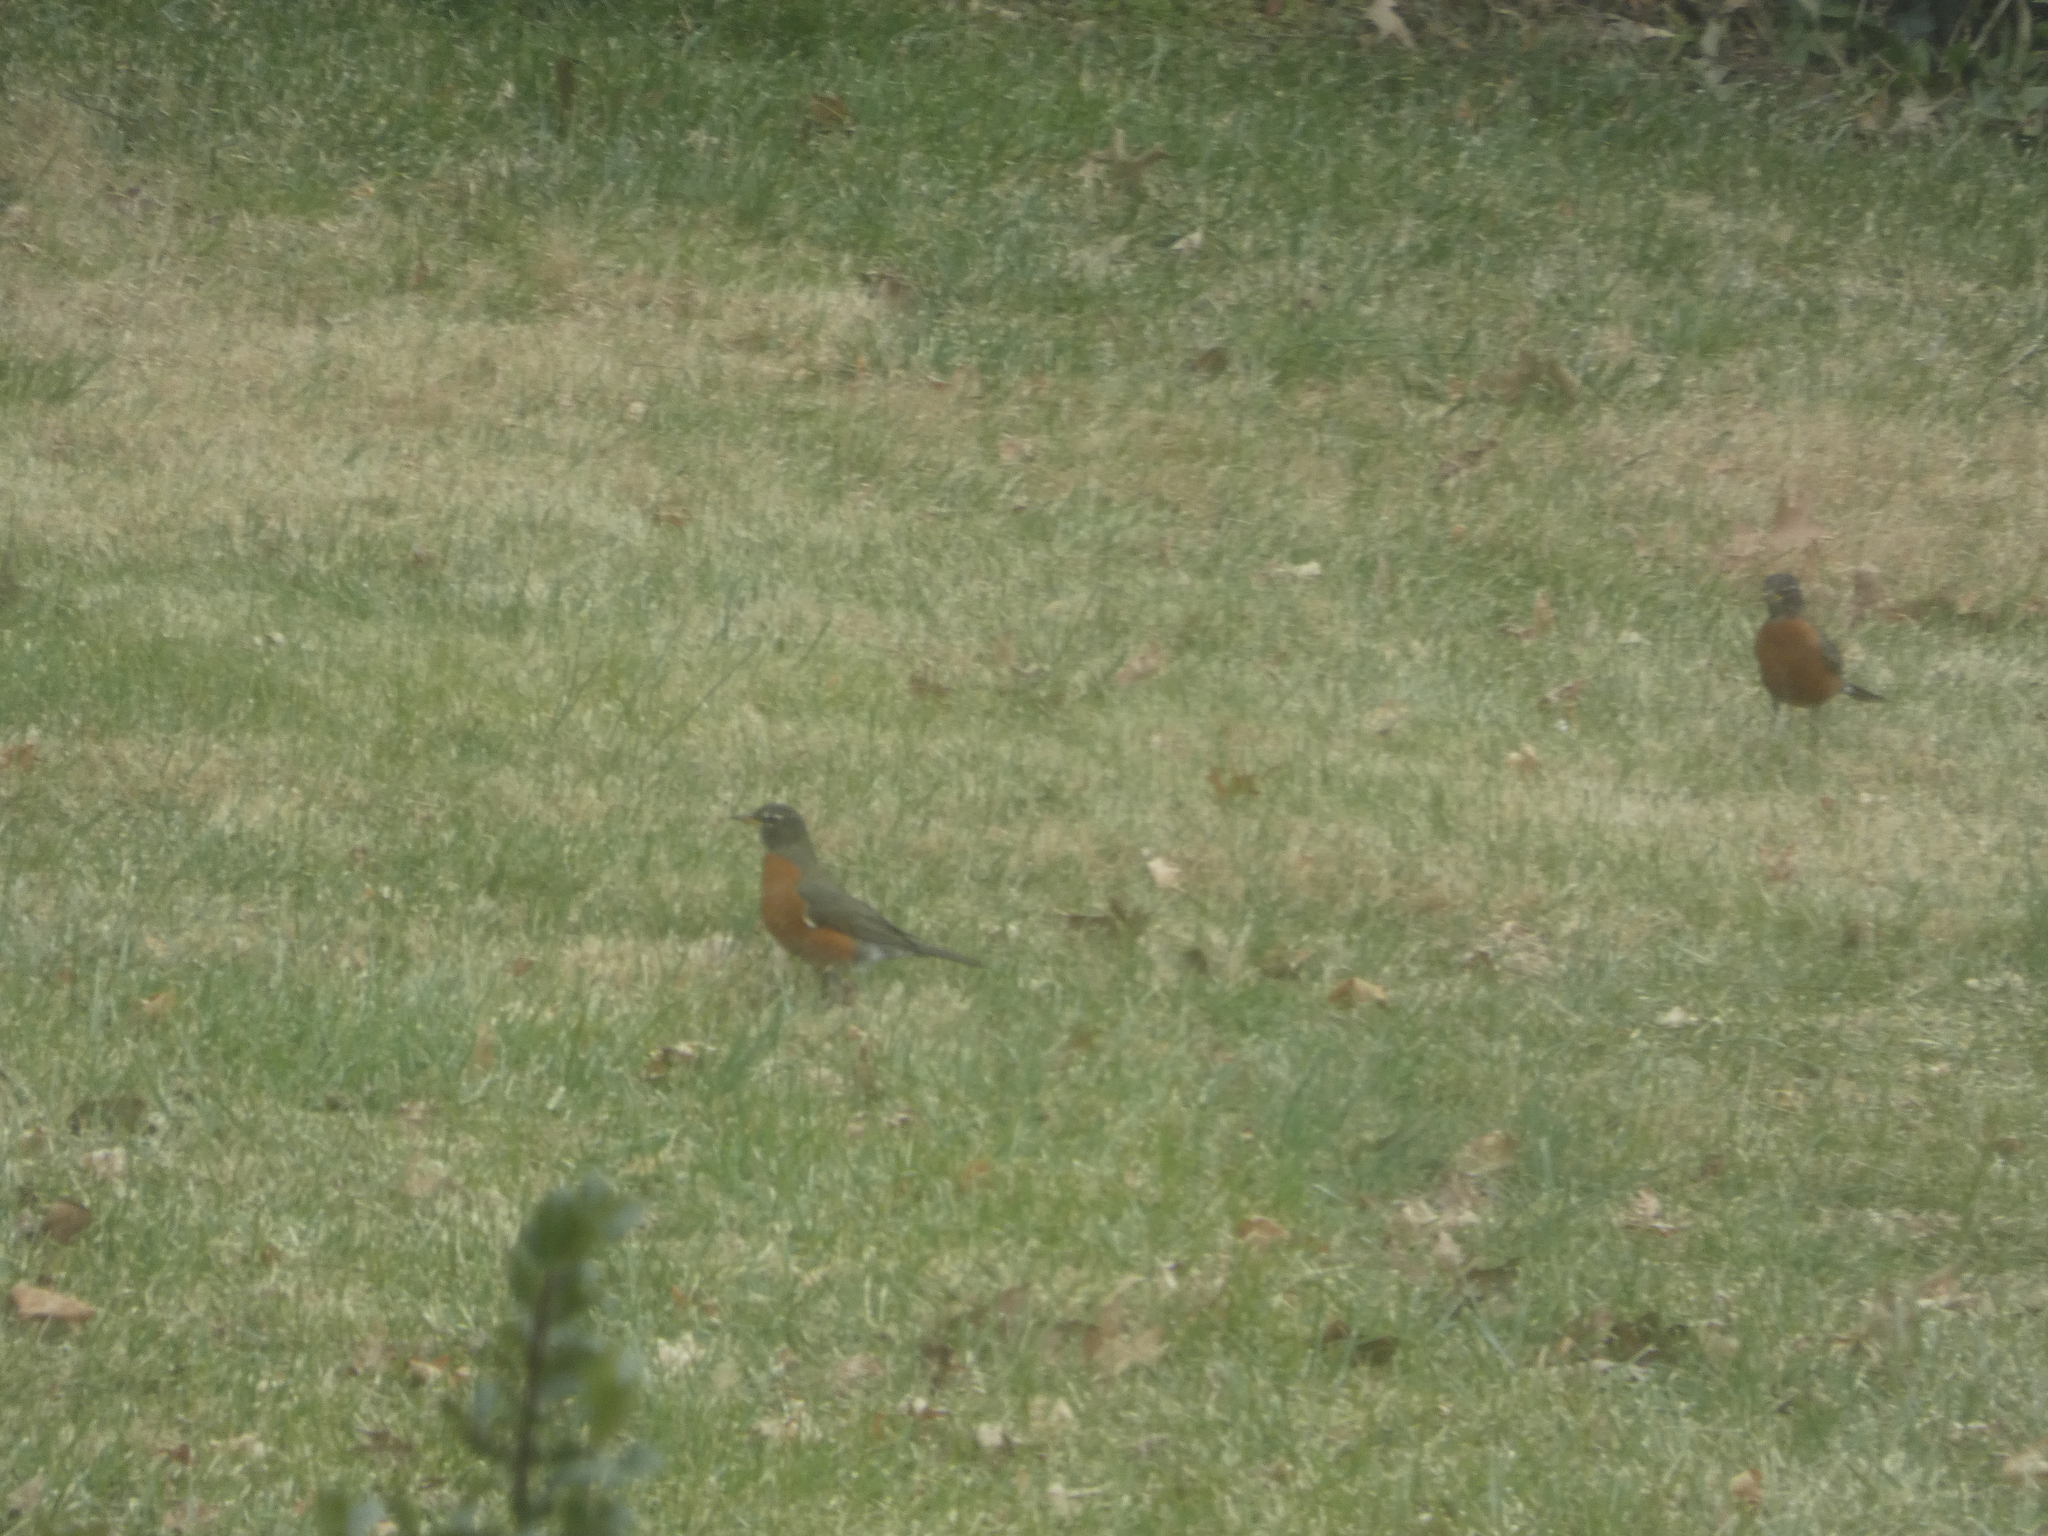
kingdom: Animalia
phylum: Chordata
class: Aves
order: Passeriformes
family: Turdidae
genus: Turdus
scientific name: Turdus migratorius
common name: American robin
